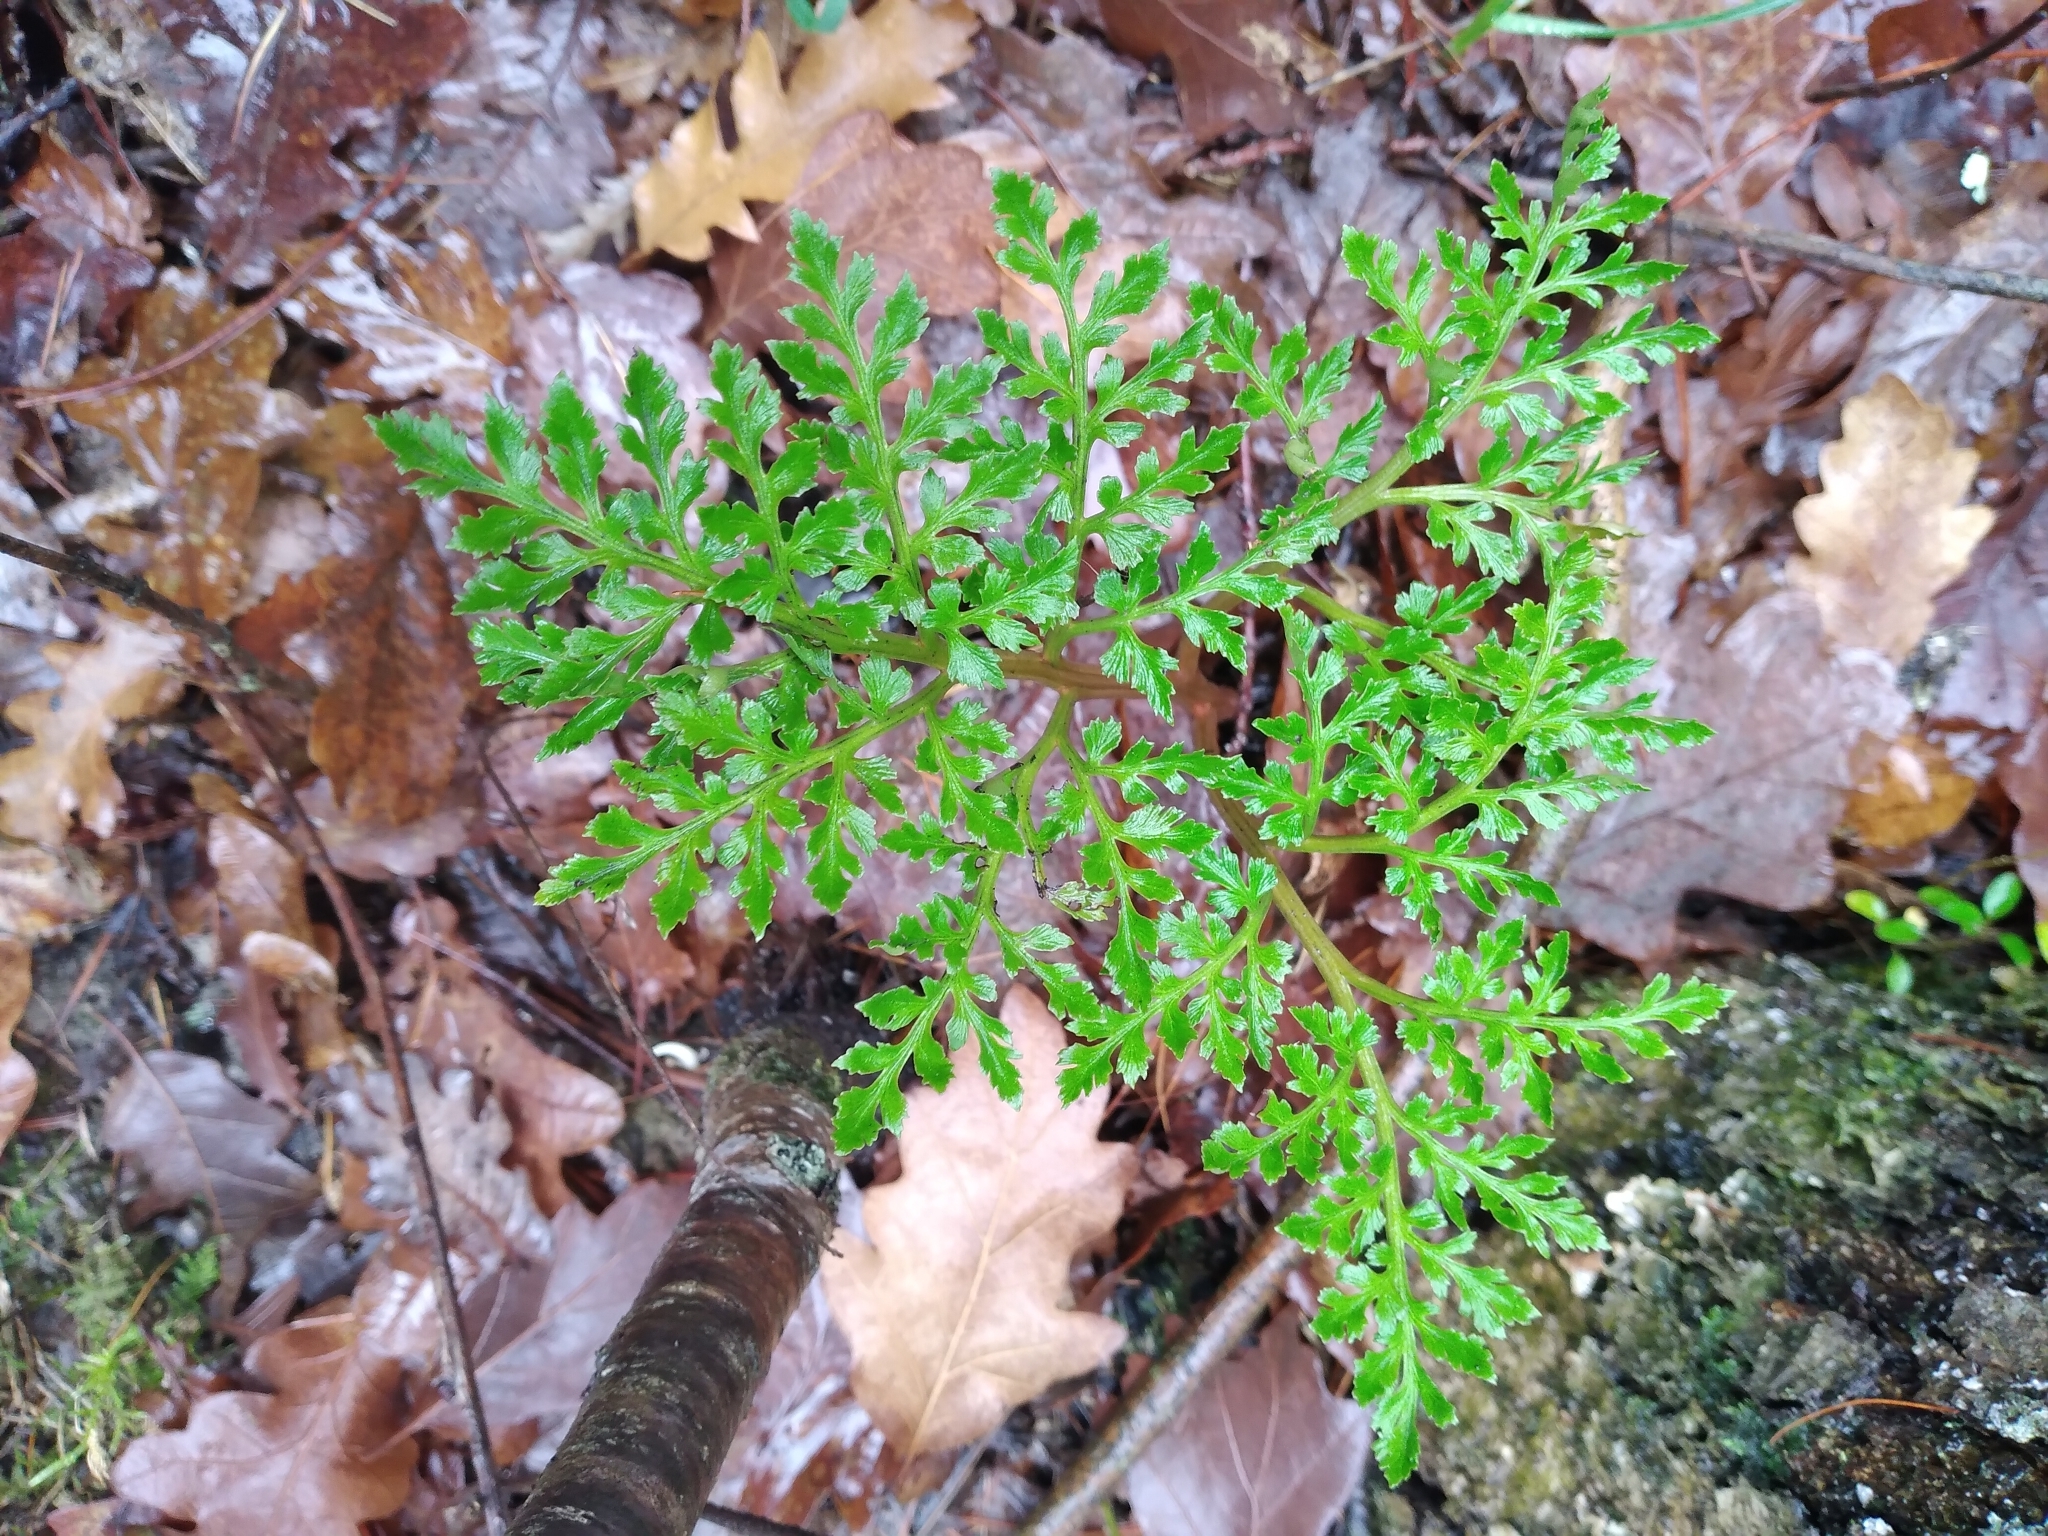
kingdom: Plantae
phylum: Tracheophyta
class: Polypodiopsida
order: Ophioglossales
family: Ophioglossaceae
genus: Sceptridium
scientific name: Sceptridium australe
